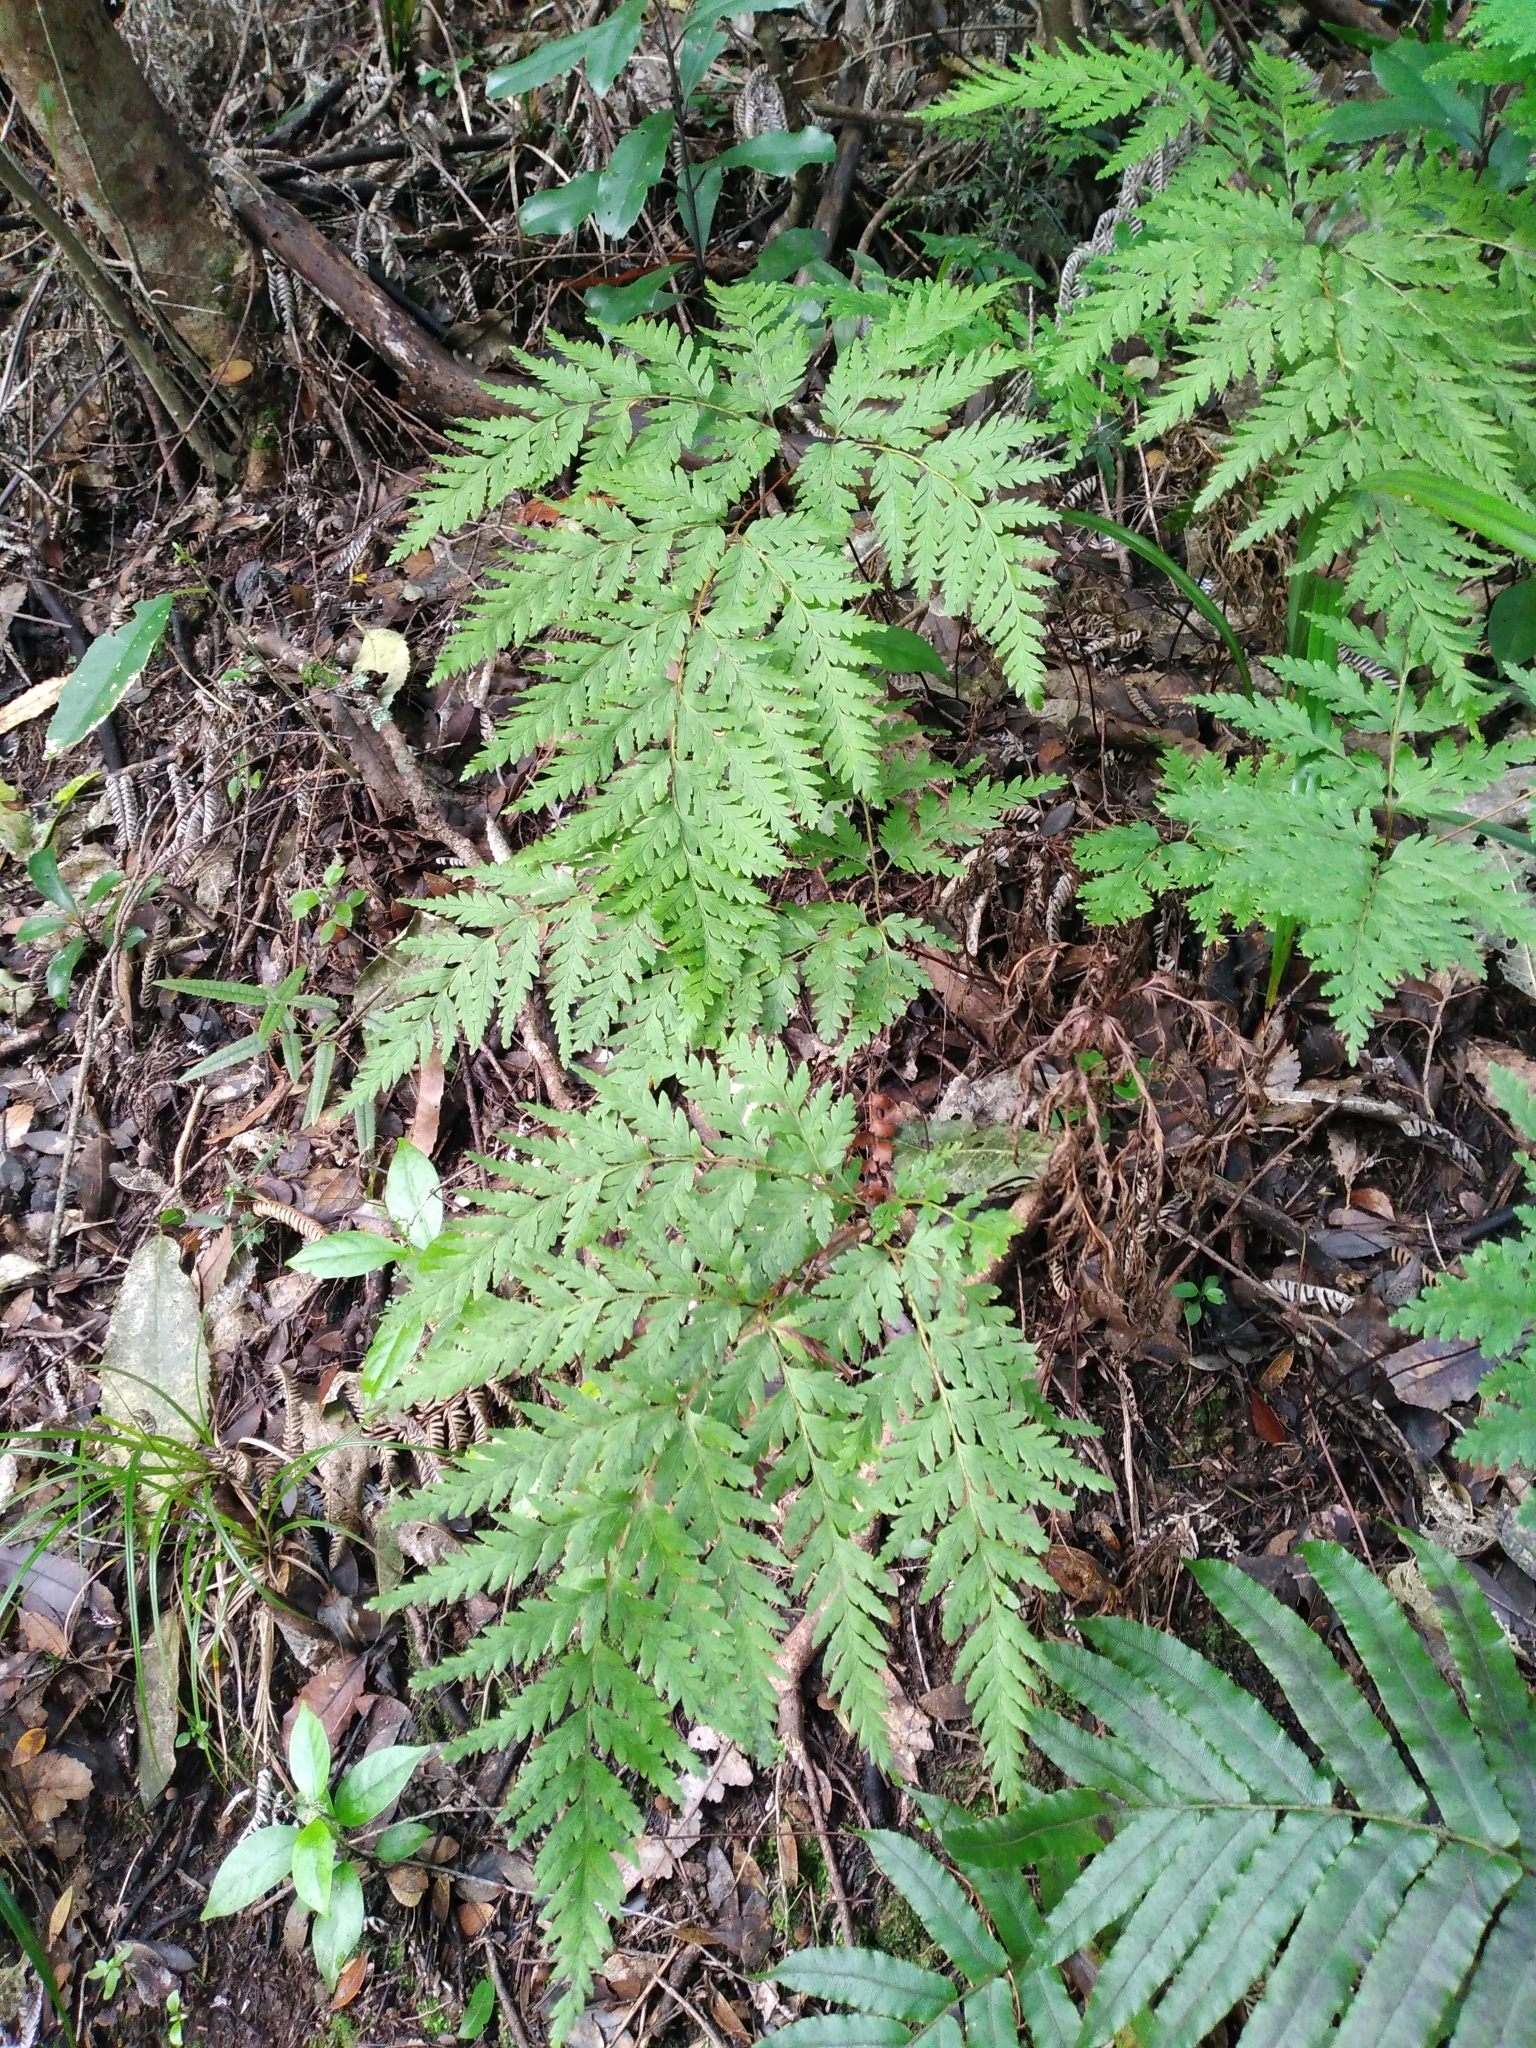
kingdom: Plantae
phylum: Tracheophyta
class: Polypodiopsida
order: Cyatheales
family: Loxsomataceae
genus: Loxsoma
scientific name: Loxsoma cunninghamii
